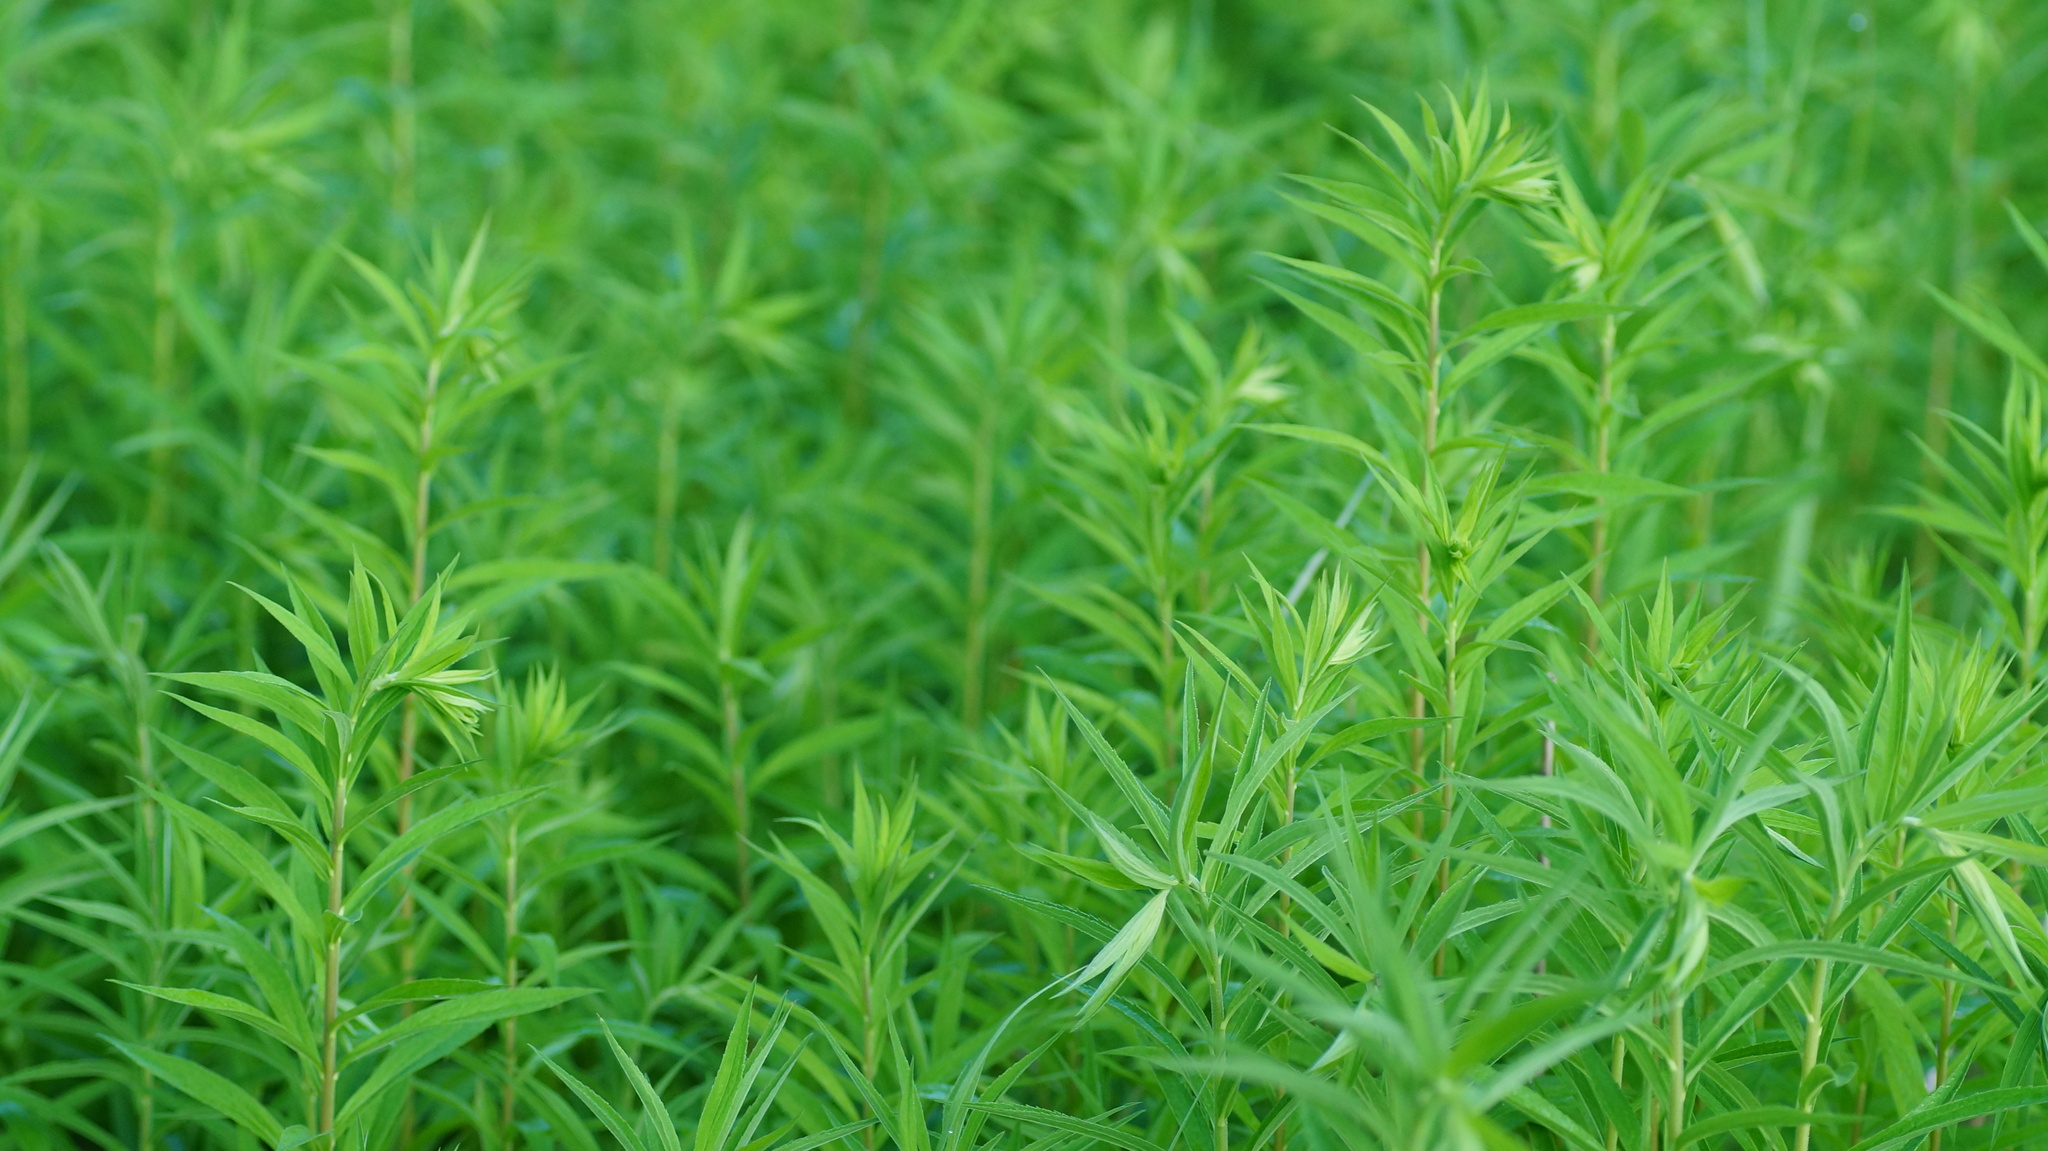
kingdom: Plantae
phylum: Tracheophyta
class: Magnoliopsida
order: Asterales
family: Asteraceae
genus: Solidago
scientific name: Solidago gigantea
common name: Giant goldenrod
